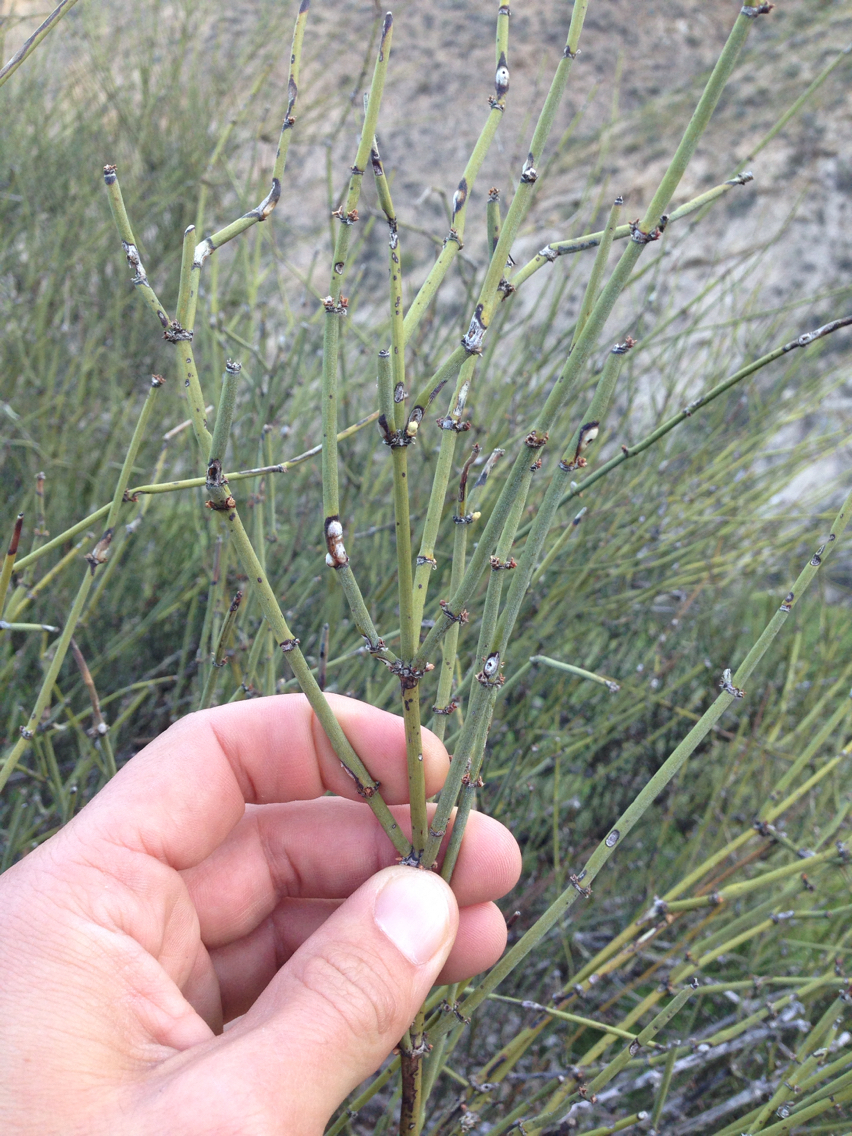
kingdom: Plantae
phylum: Tracheophyta
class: Gnetopsida
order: Ephedrales
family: Ephedraceae
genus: Ephedra
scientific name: Ephedra californica
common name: California ephedra
